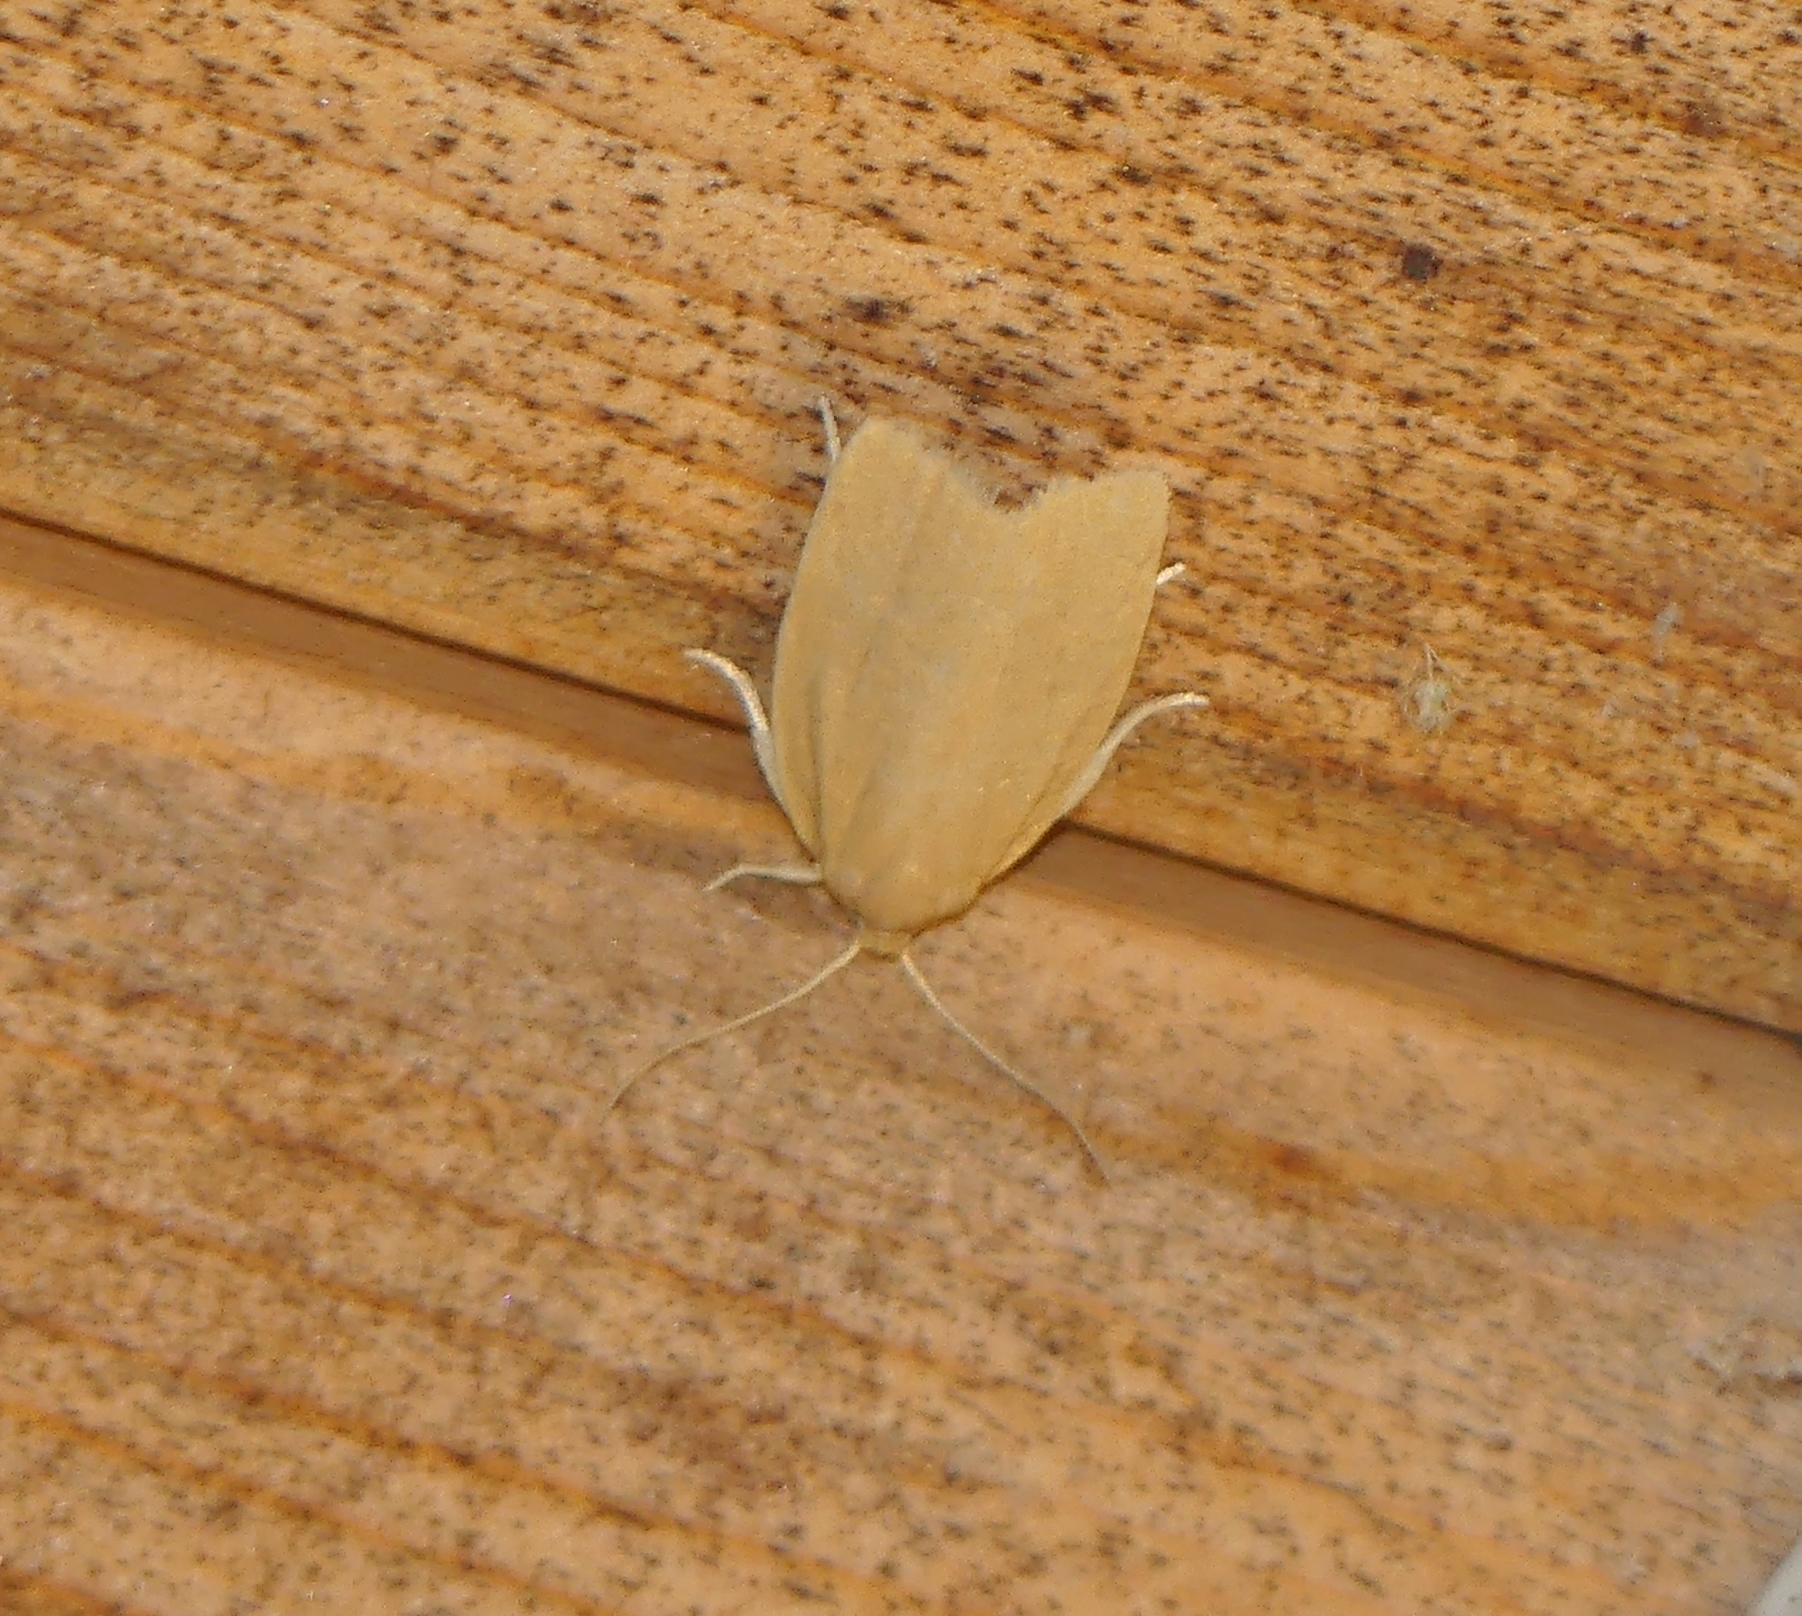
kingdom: Animalia
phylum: Arthropoda
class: Insecta
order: Lepidoptera
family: Tortricidae
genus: Clepsis
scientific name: Clepsis clemensiana
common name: Clemens' clepsis moth
